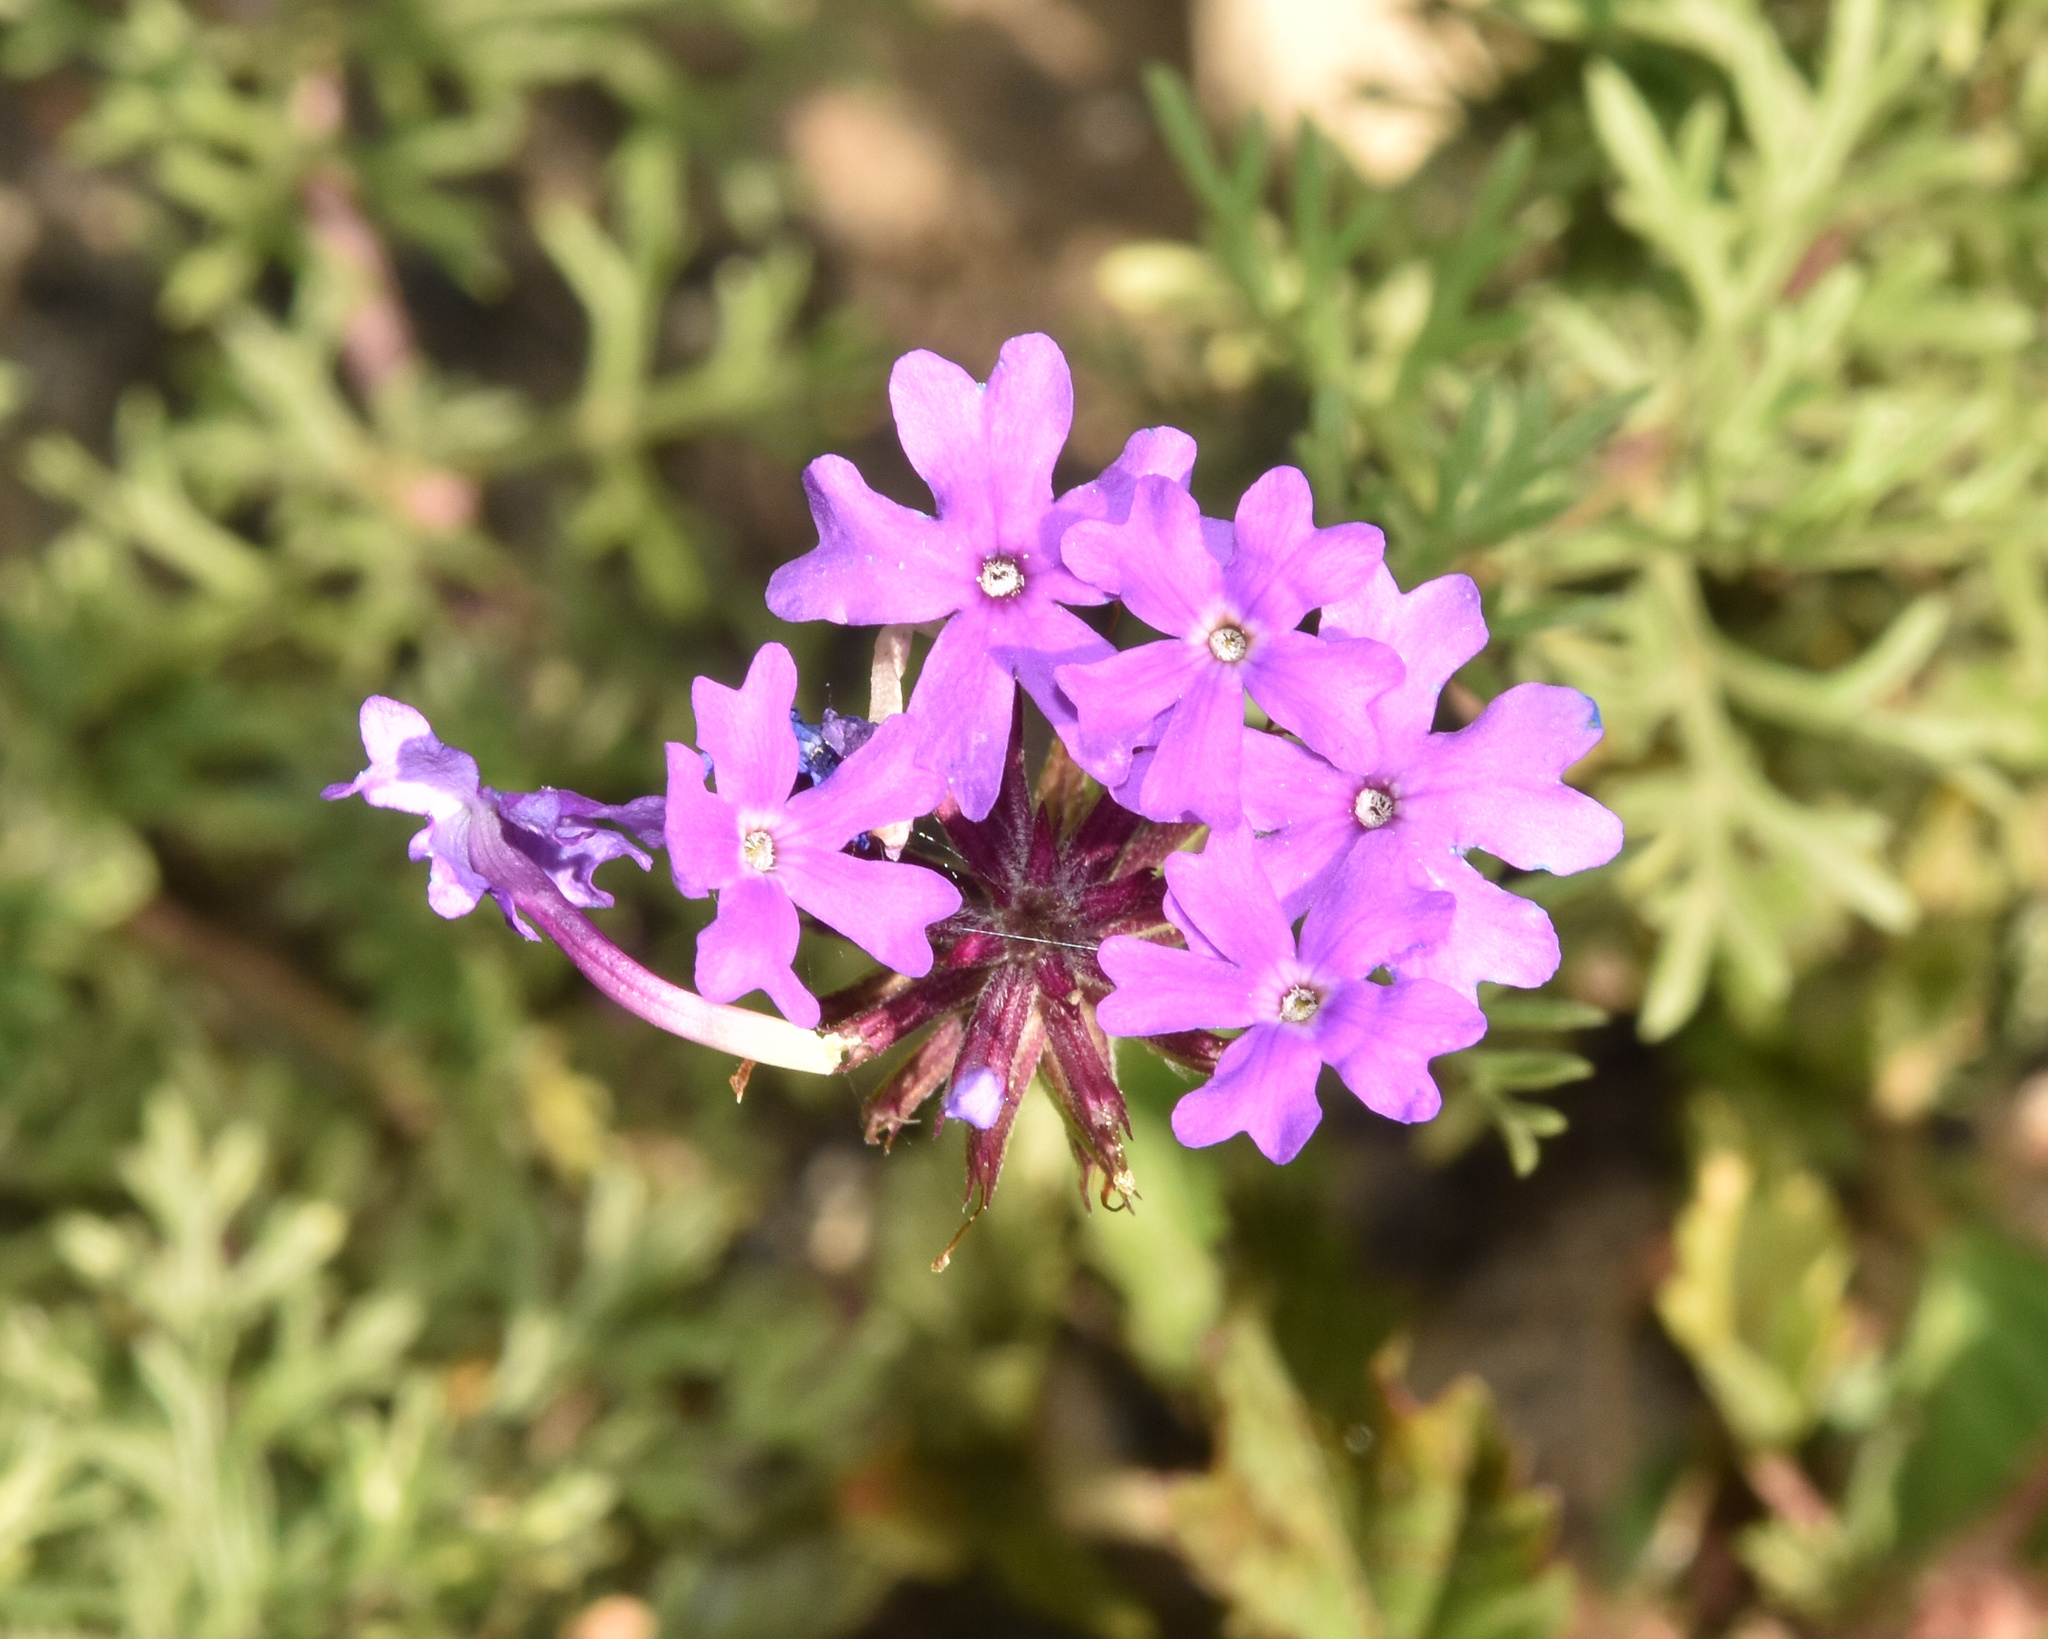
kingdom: Plantae
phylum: Tracheophyta
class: Magnoliopsida
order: Lamiales
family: Verbenaceae
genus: Verbena
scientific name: Verbena aristigera
